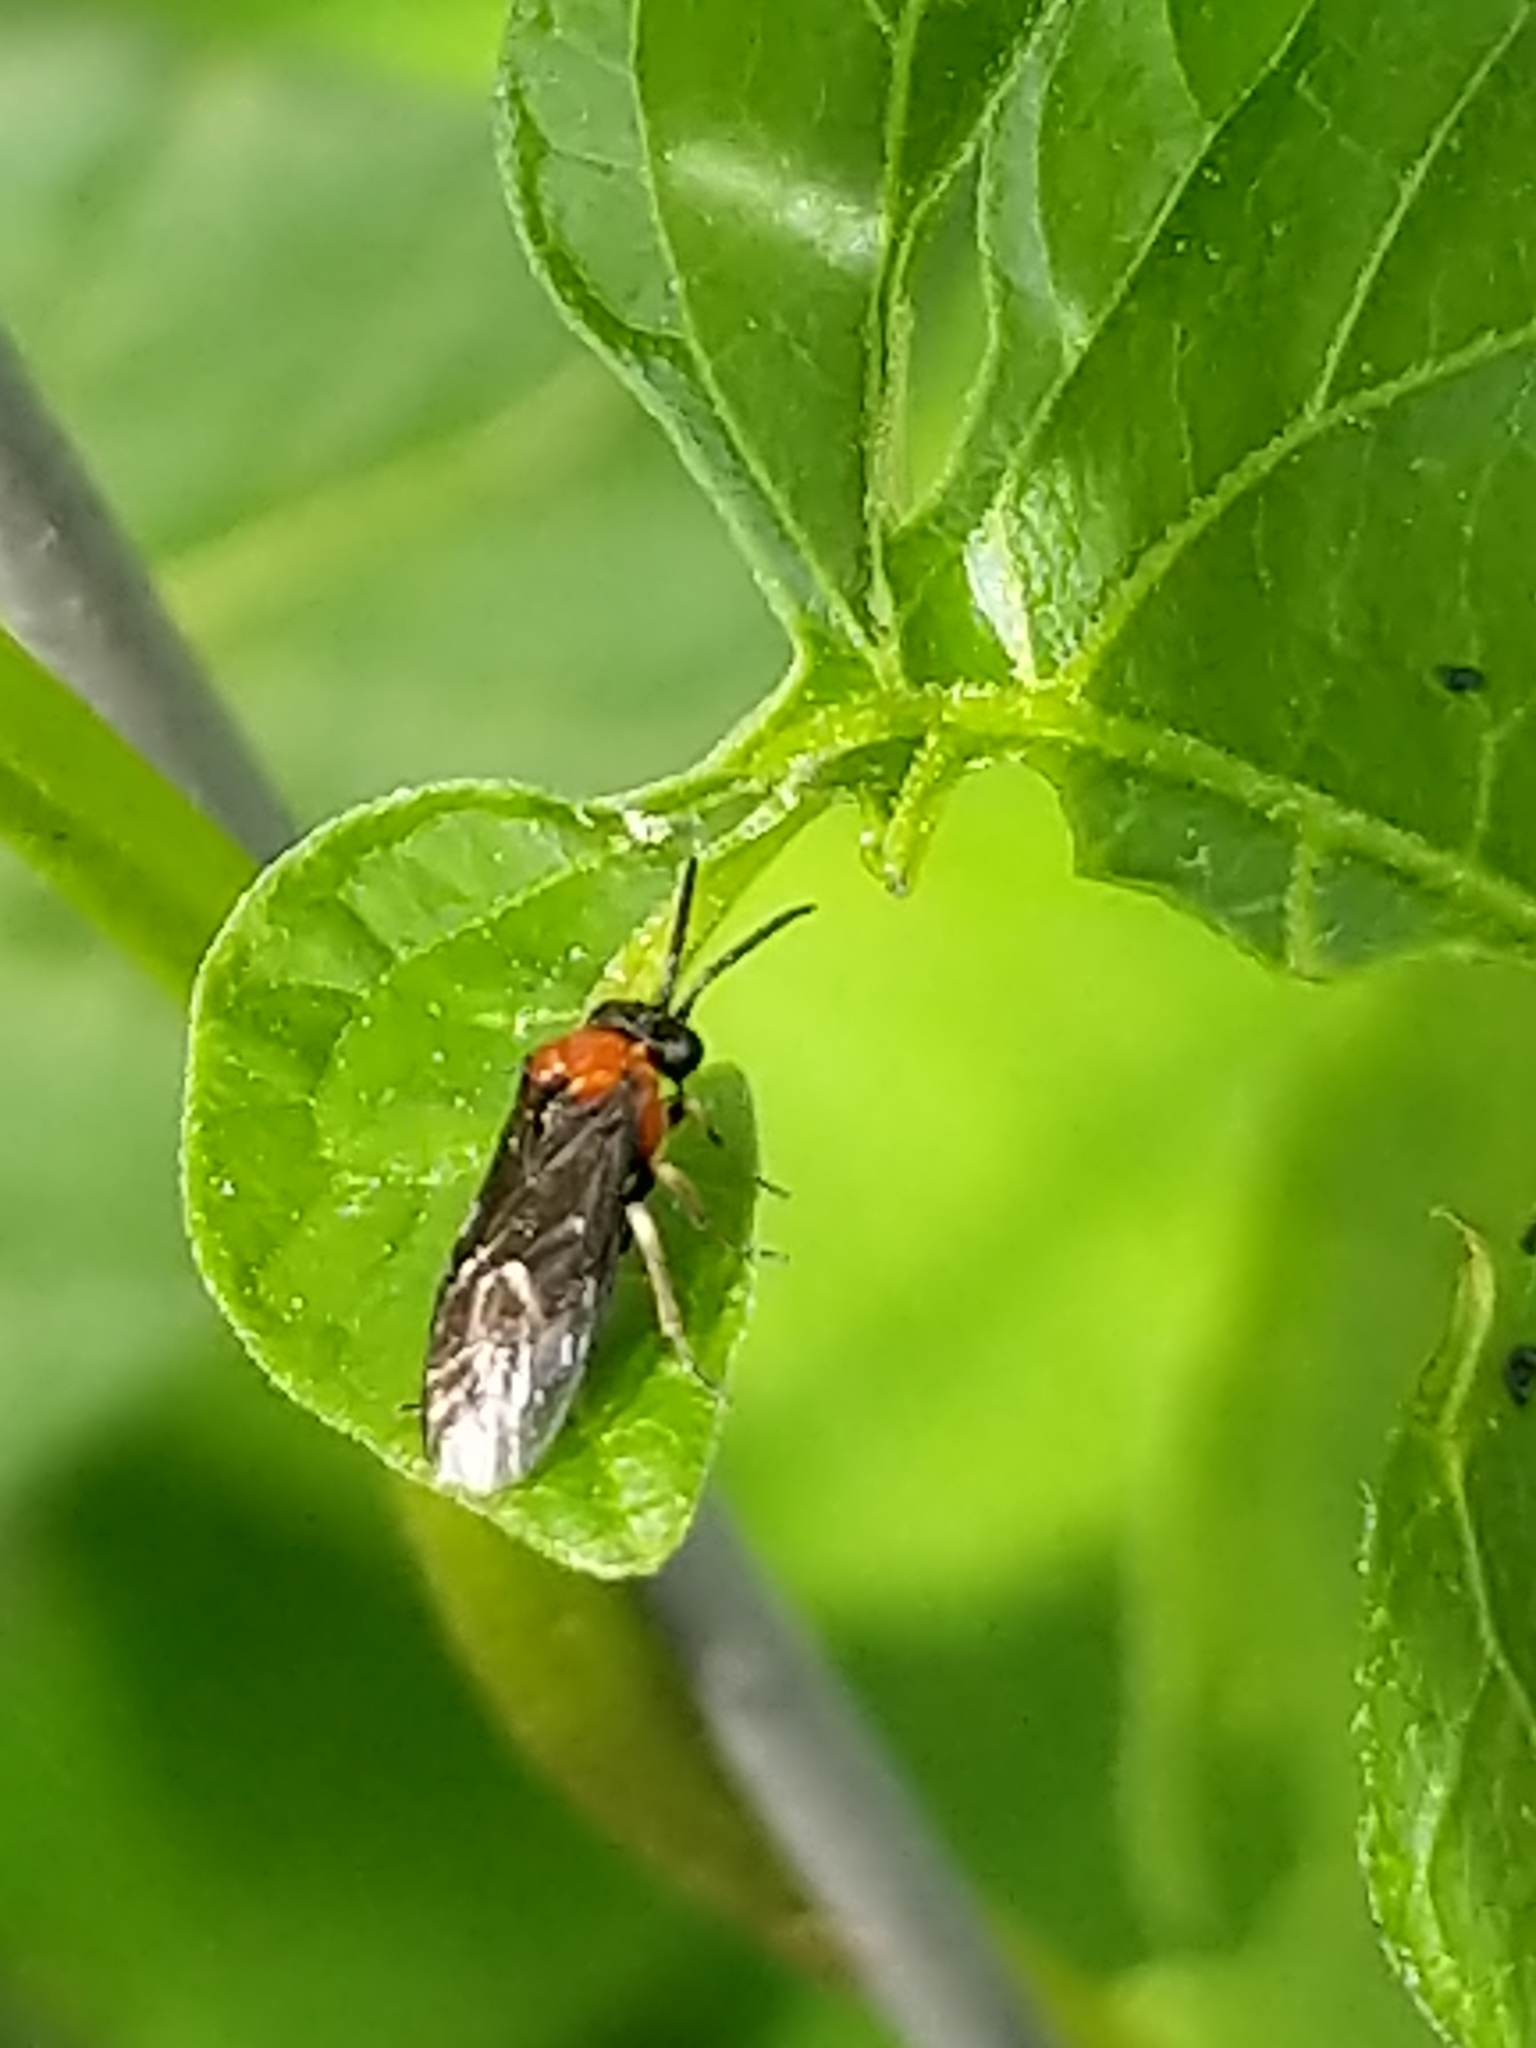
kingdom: Animalia
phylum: Arthropoda
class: Insecta
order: Hymenoptera
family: Tenthredinidae
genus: Eutomostethus
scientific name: Eutomostethus ephippium
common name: Tenthredid wasp
